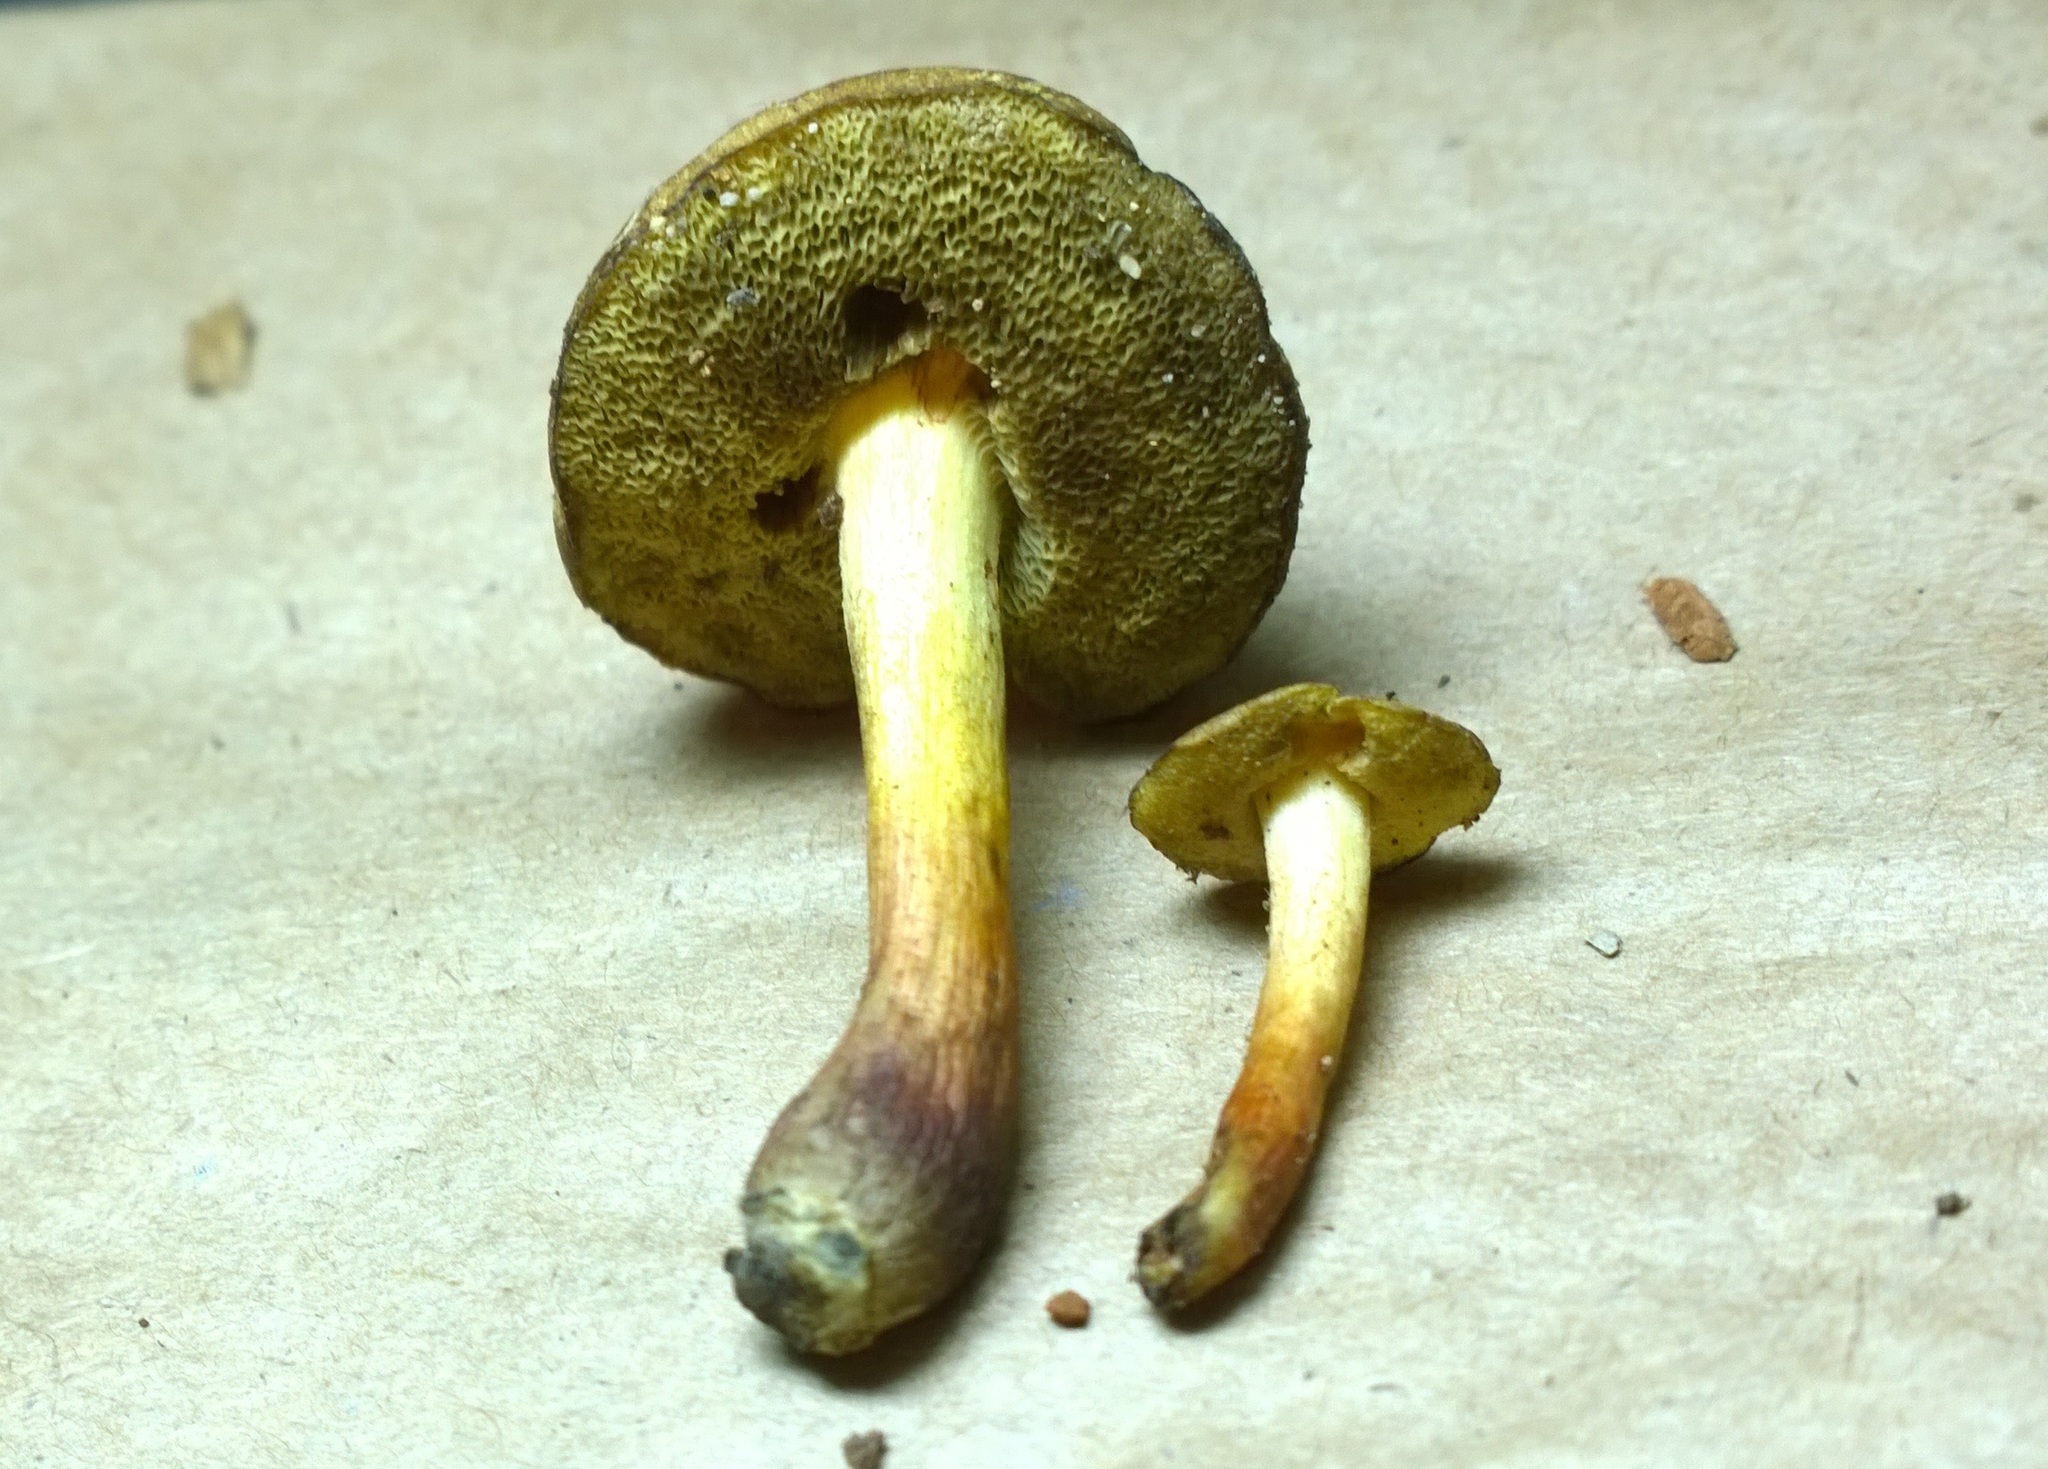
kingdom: Fungi
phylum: Basidiomycota
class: Agaricomycetes
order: Boletales
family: Boletaceae
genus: Xerocomellus
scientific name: Xerocomellus chrysenteron
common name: Red-cracking bolete
